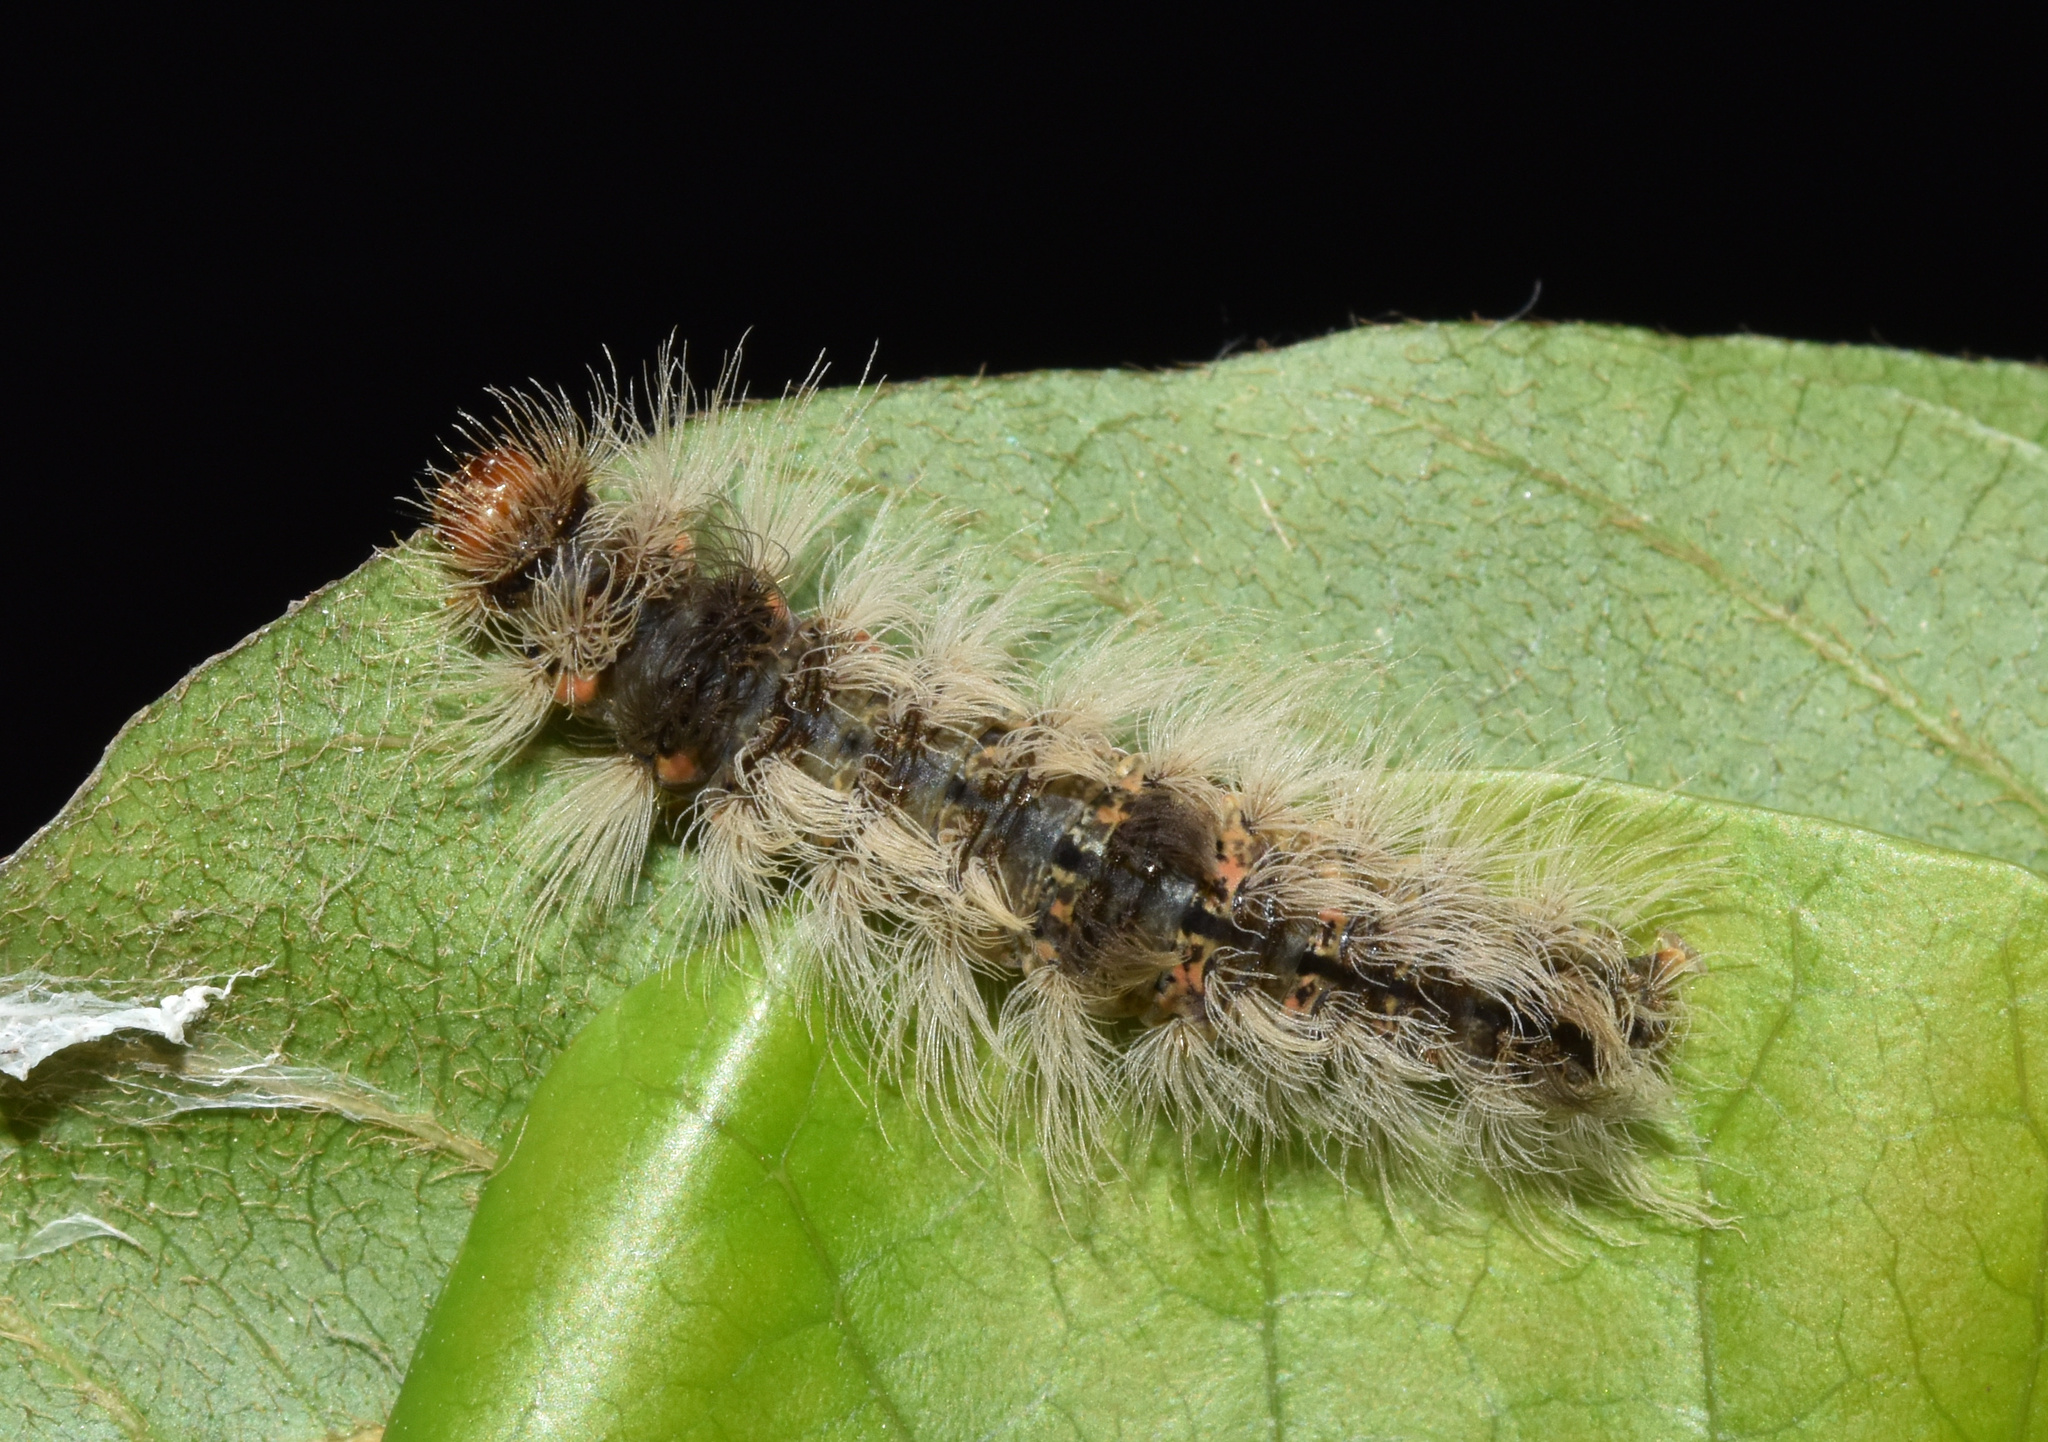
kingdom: Animalia
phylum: Arthropoda
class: Insecta
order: Lepidoptera
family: Erebidae
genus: Pseudocragia
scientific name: Pseudocragia quadrinotata
